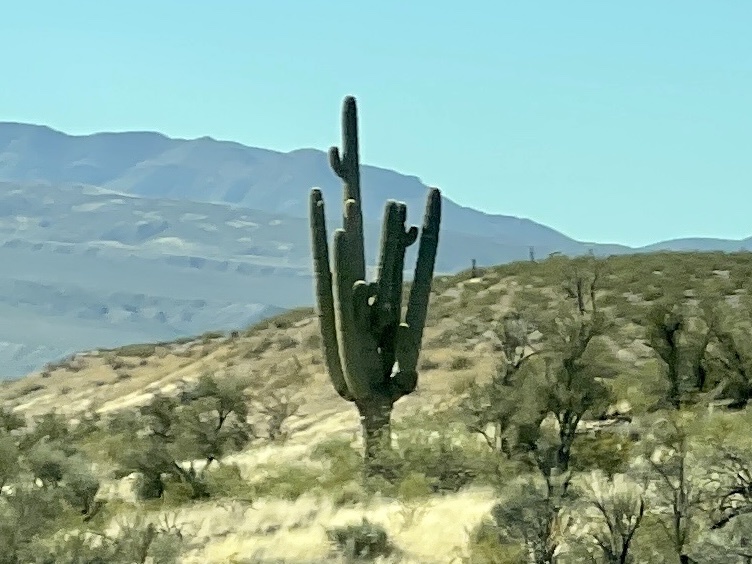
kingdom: Plantae
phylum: Tracheophyta
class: Magnoliopsida
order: Caryophyllales
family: Cactaceae
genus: Carnegiea
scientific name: Carnegiea gigantea
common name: Saguaro
